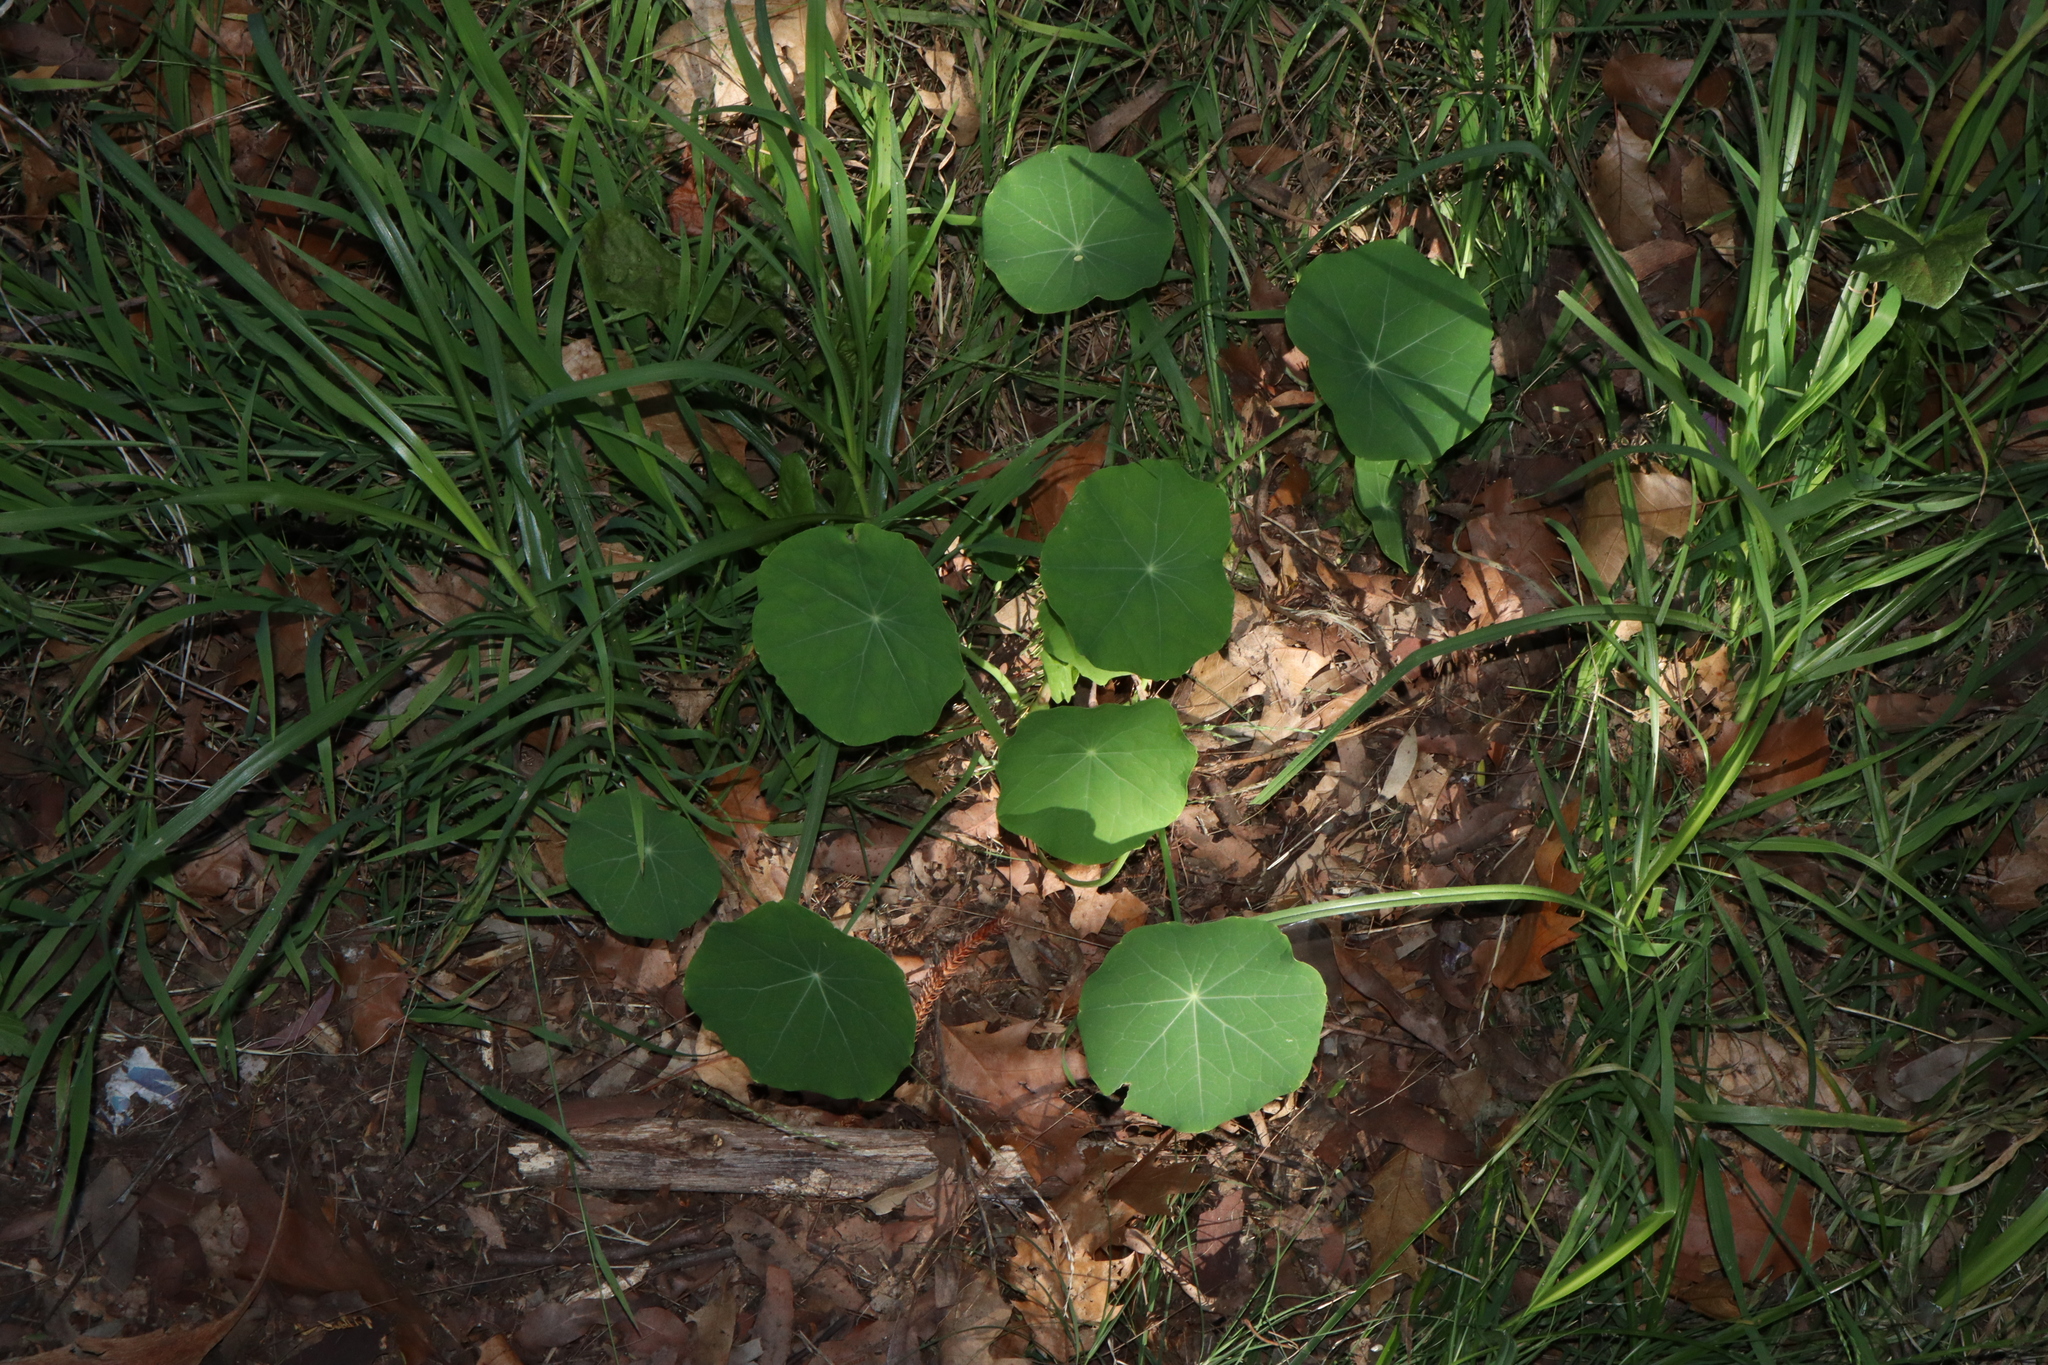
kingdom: Plantae
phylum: Tracheophyta
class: Magnoliopsida
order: Brassicales
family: Tropaeolaceae
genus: Tropaeolum
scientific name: Tropaeolum majus
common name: Nasturtium
